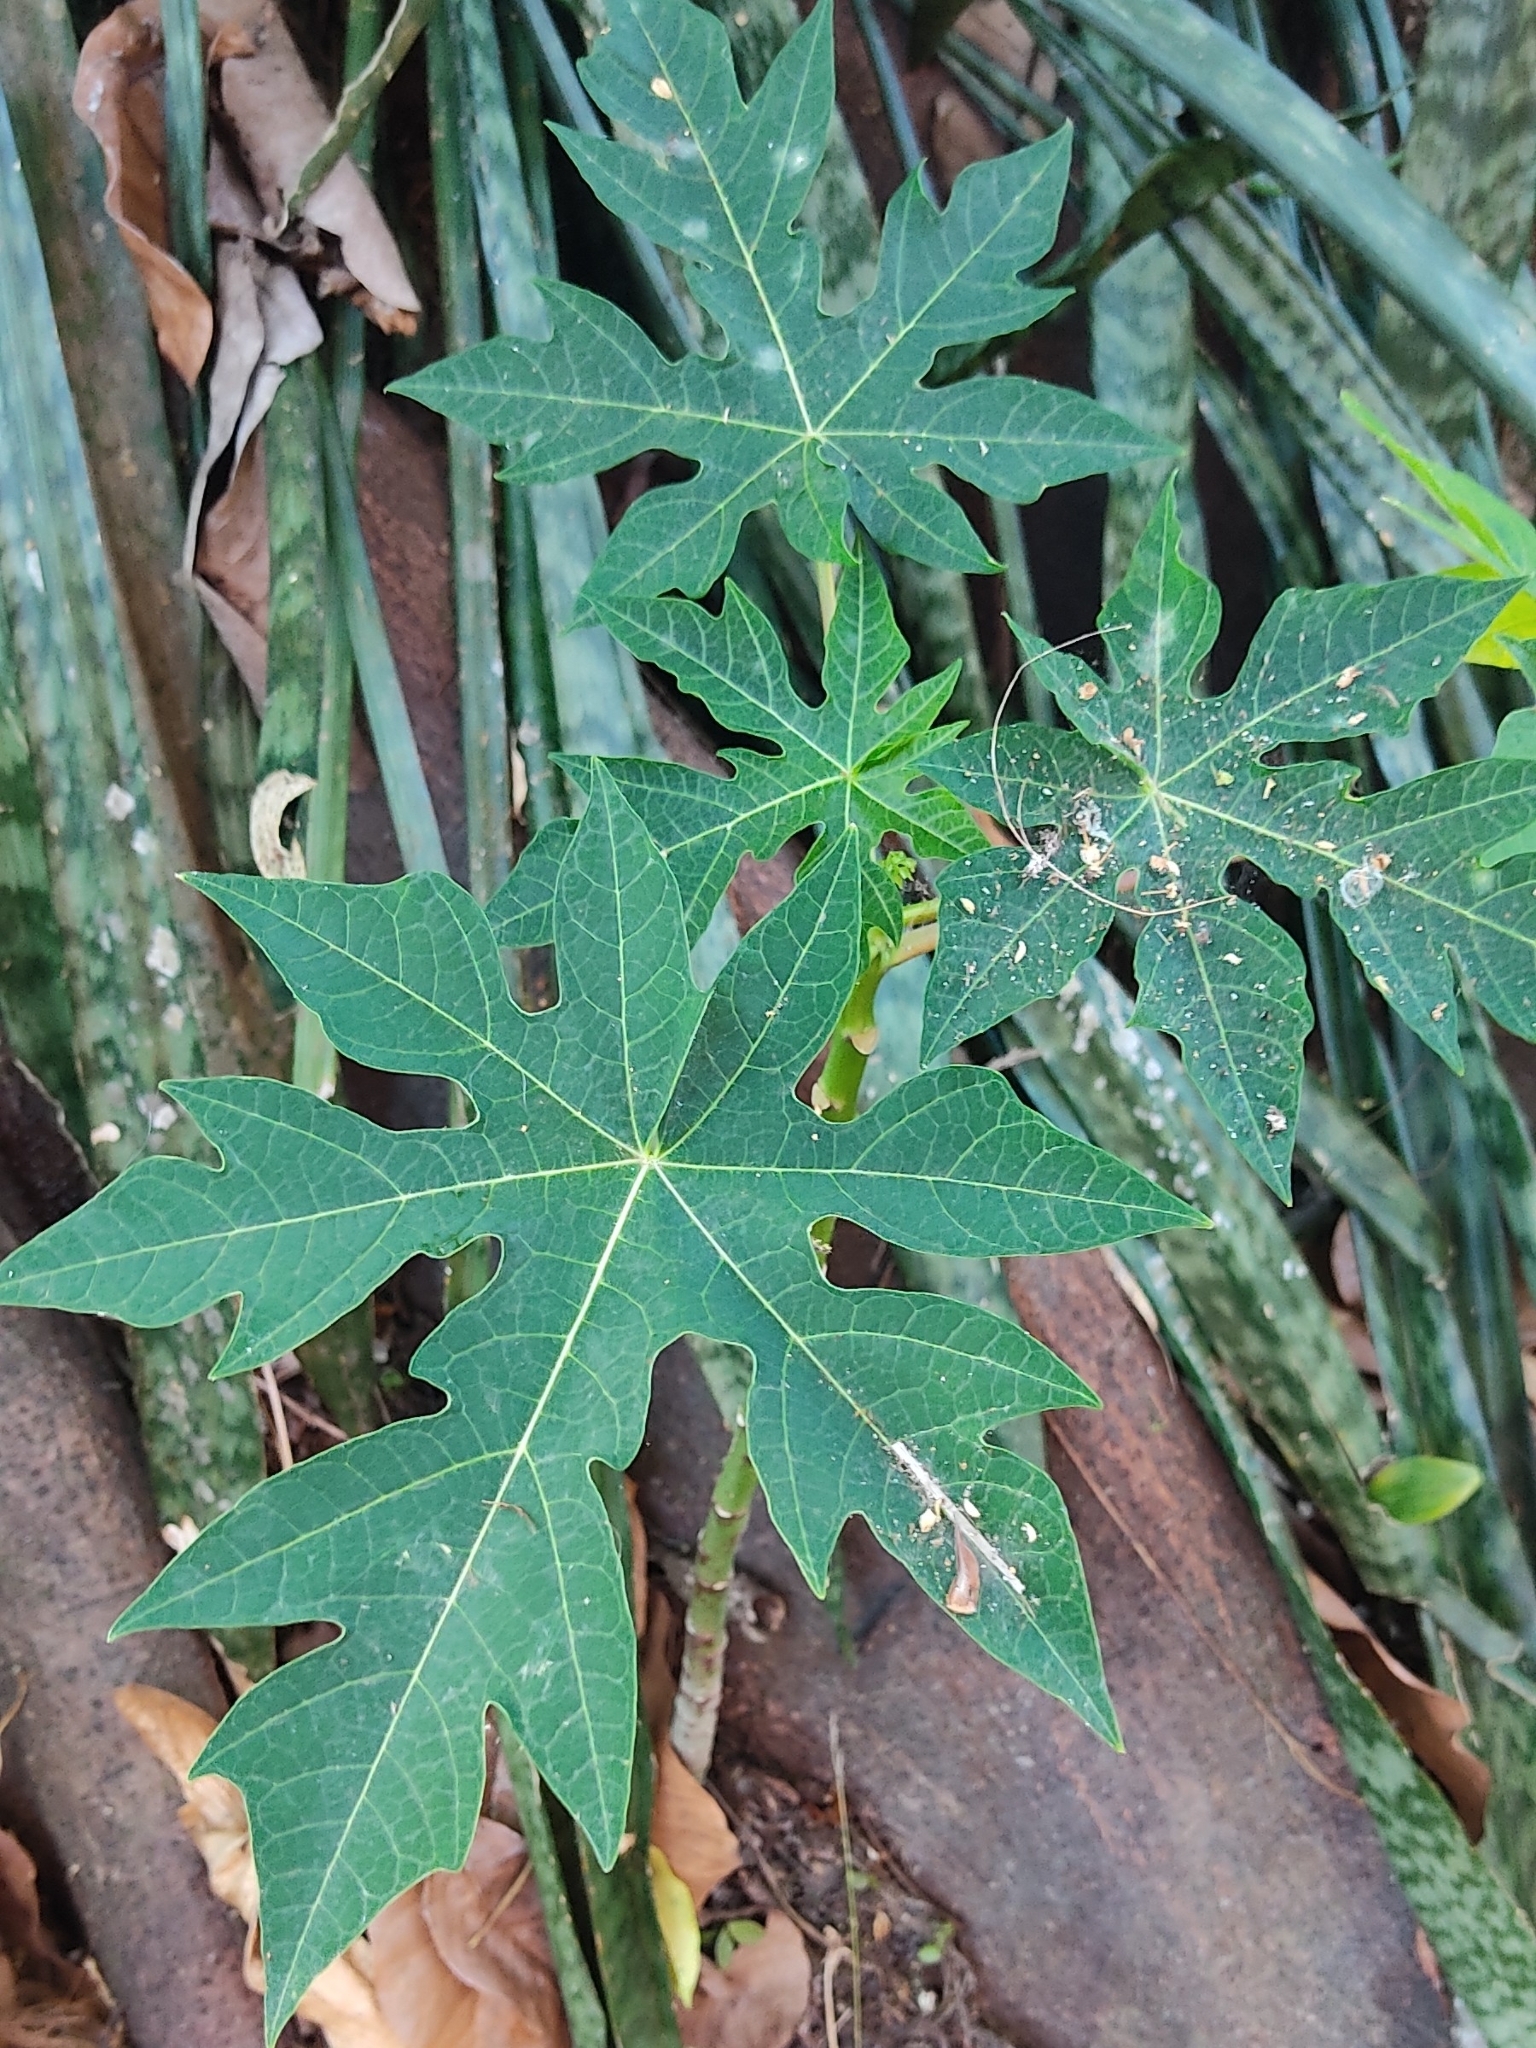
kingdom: Plantae
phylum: Tracheophyta
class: Magnoliopsida
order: Brassicales
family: Caricaceae
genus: Carica
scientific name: Carica papaya
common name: Papaya
